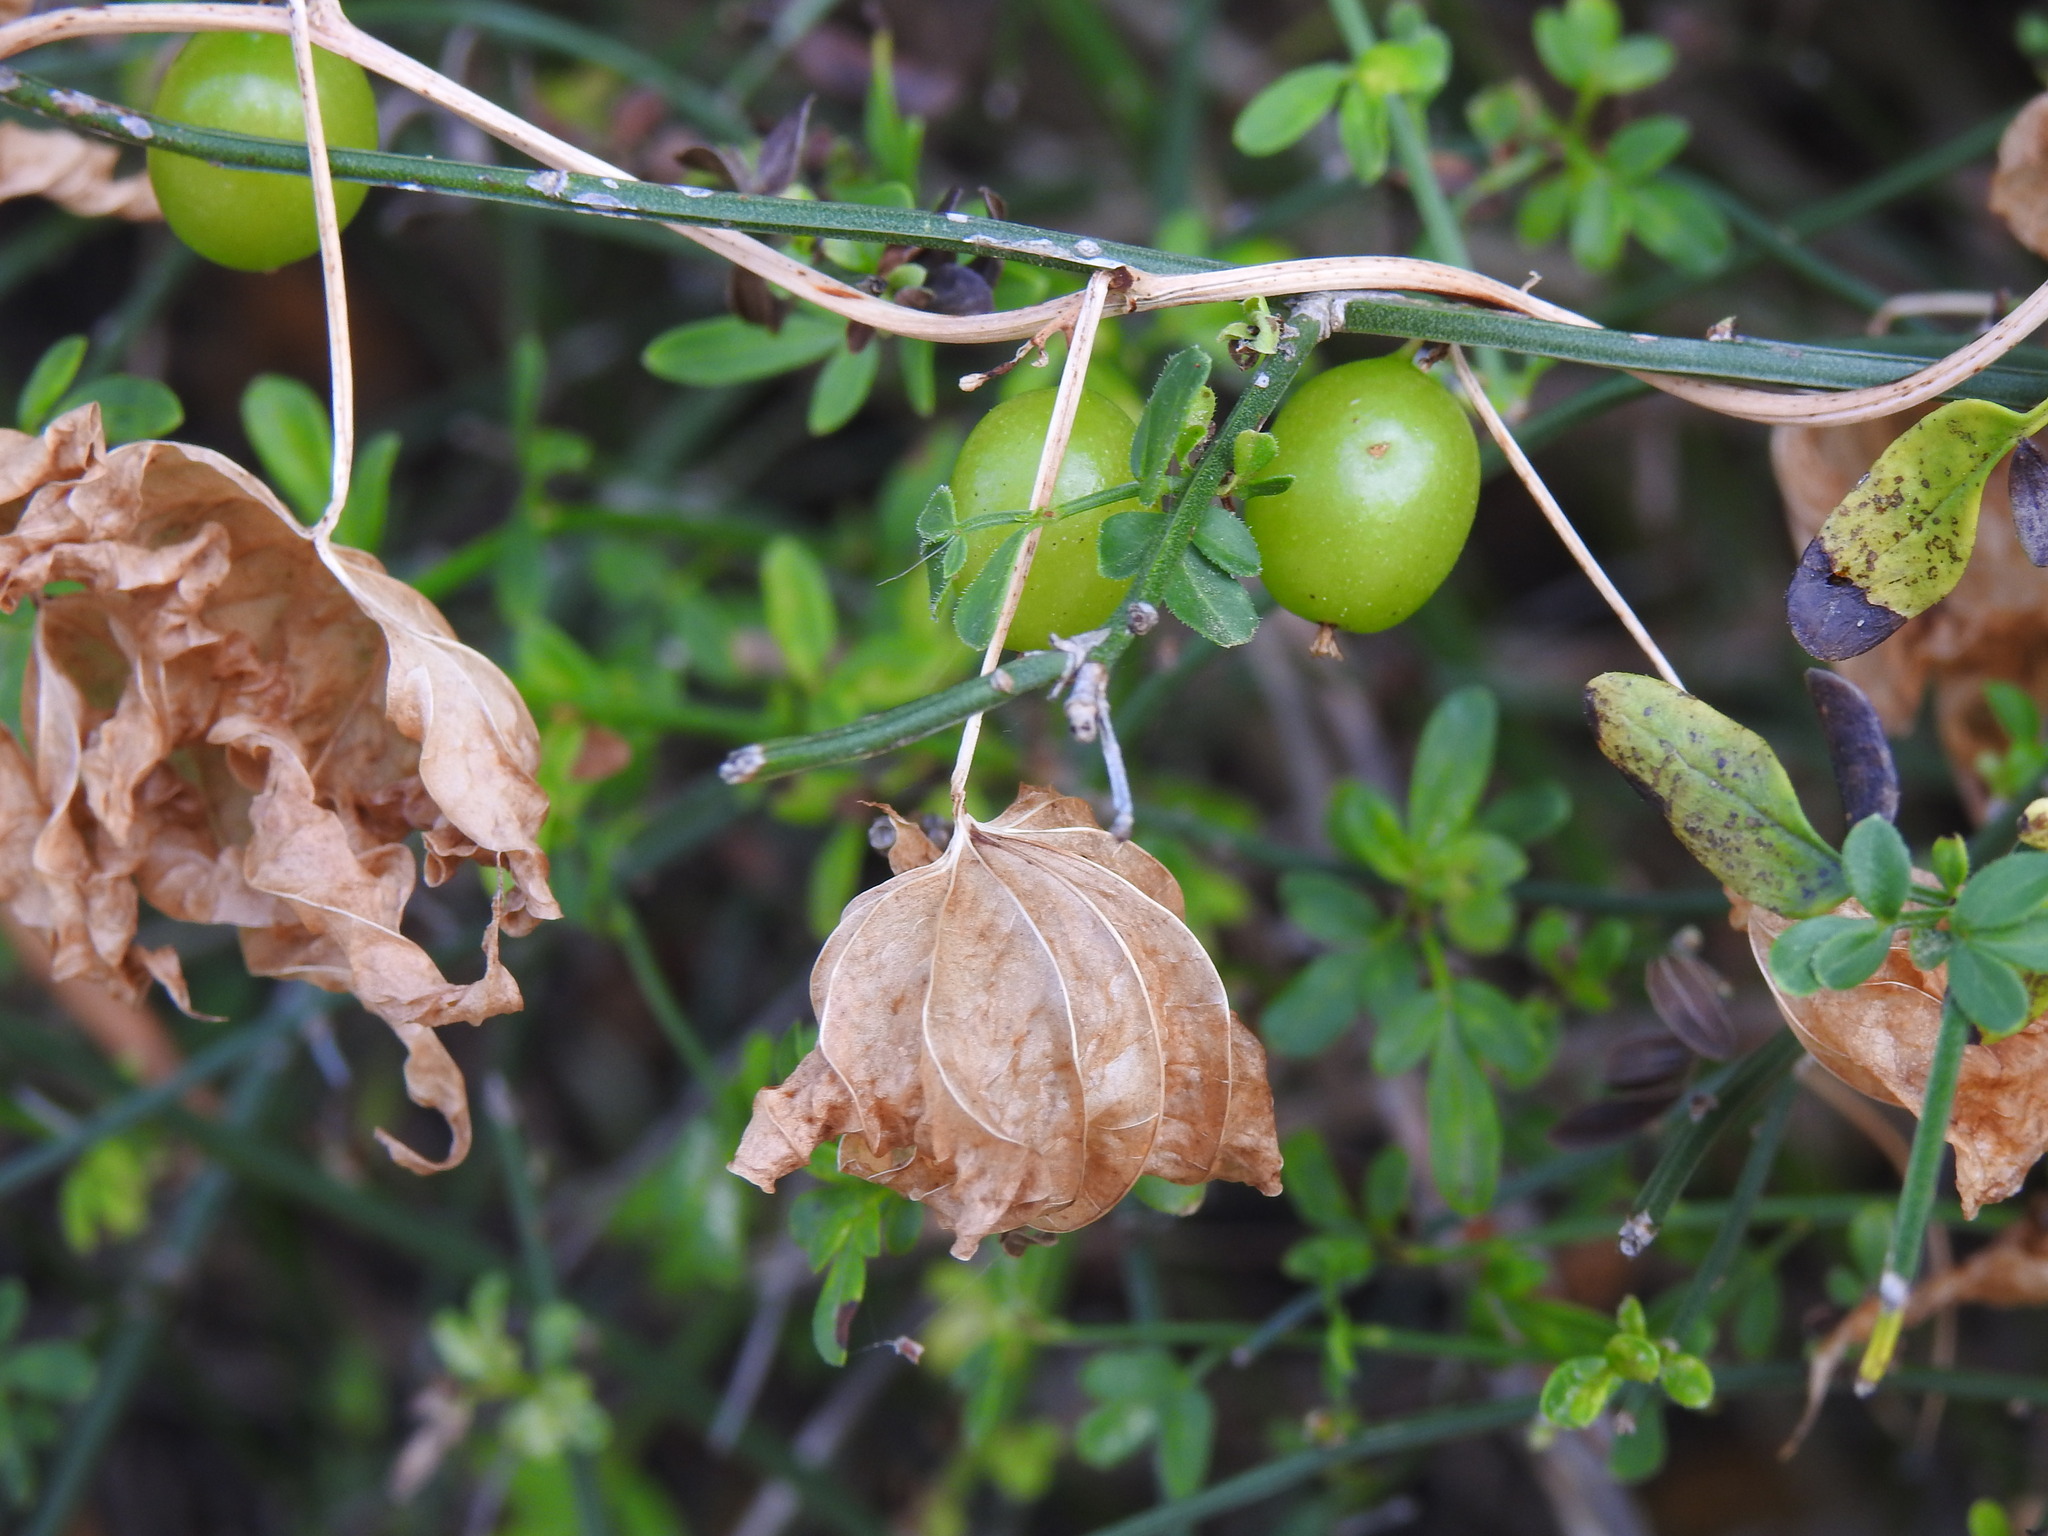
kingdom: Plantae
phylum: Tracheophyta
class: Liliopsida
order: Dioscoreales
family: Dioscoreaceae
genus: Dioscorea
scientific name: Dioscorea communis
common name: Black-bindweed
